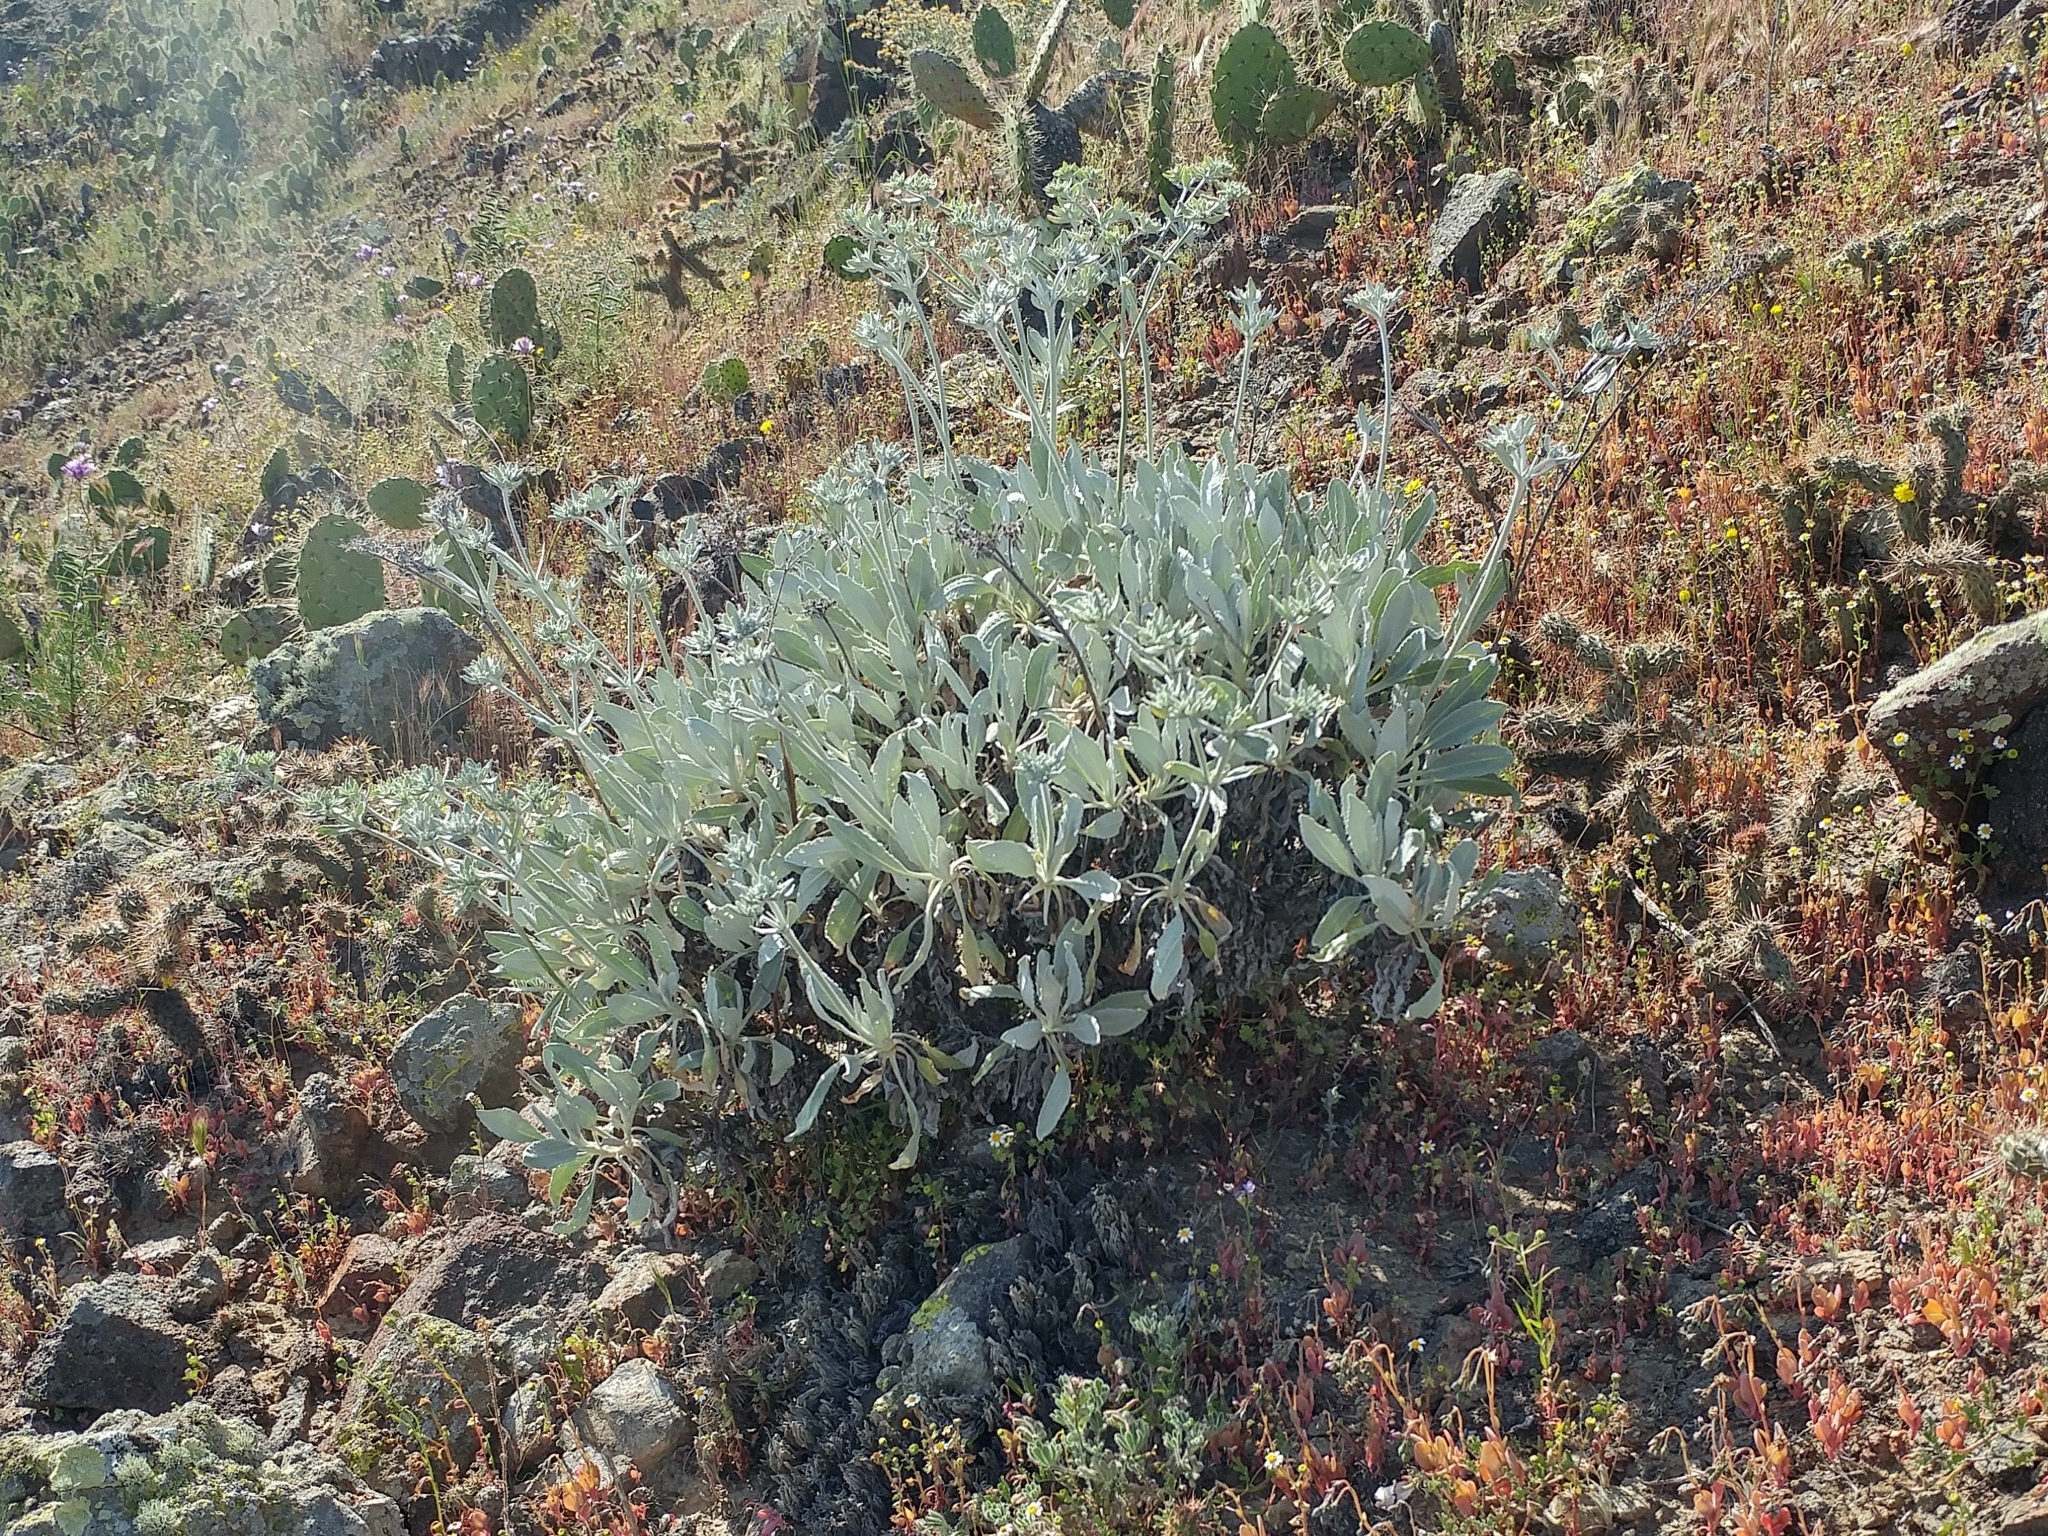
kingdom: Plantae
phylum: Tracheophyta
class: Magnoliopsida
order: Caryophyllales
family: Polygonaceae
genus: Eriogonum
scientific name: Eriogonum giganteum
